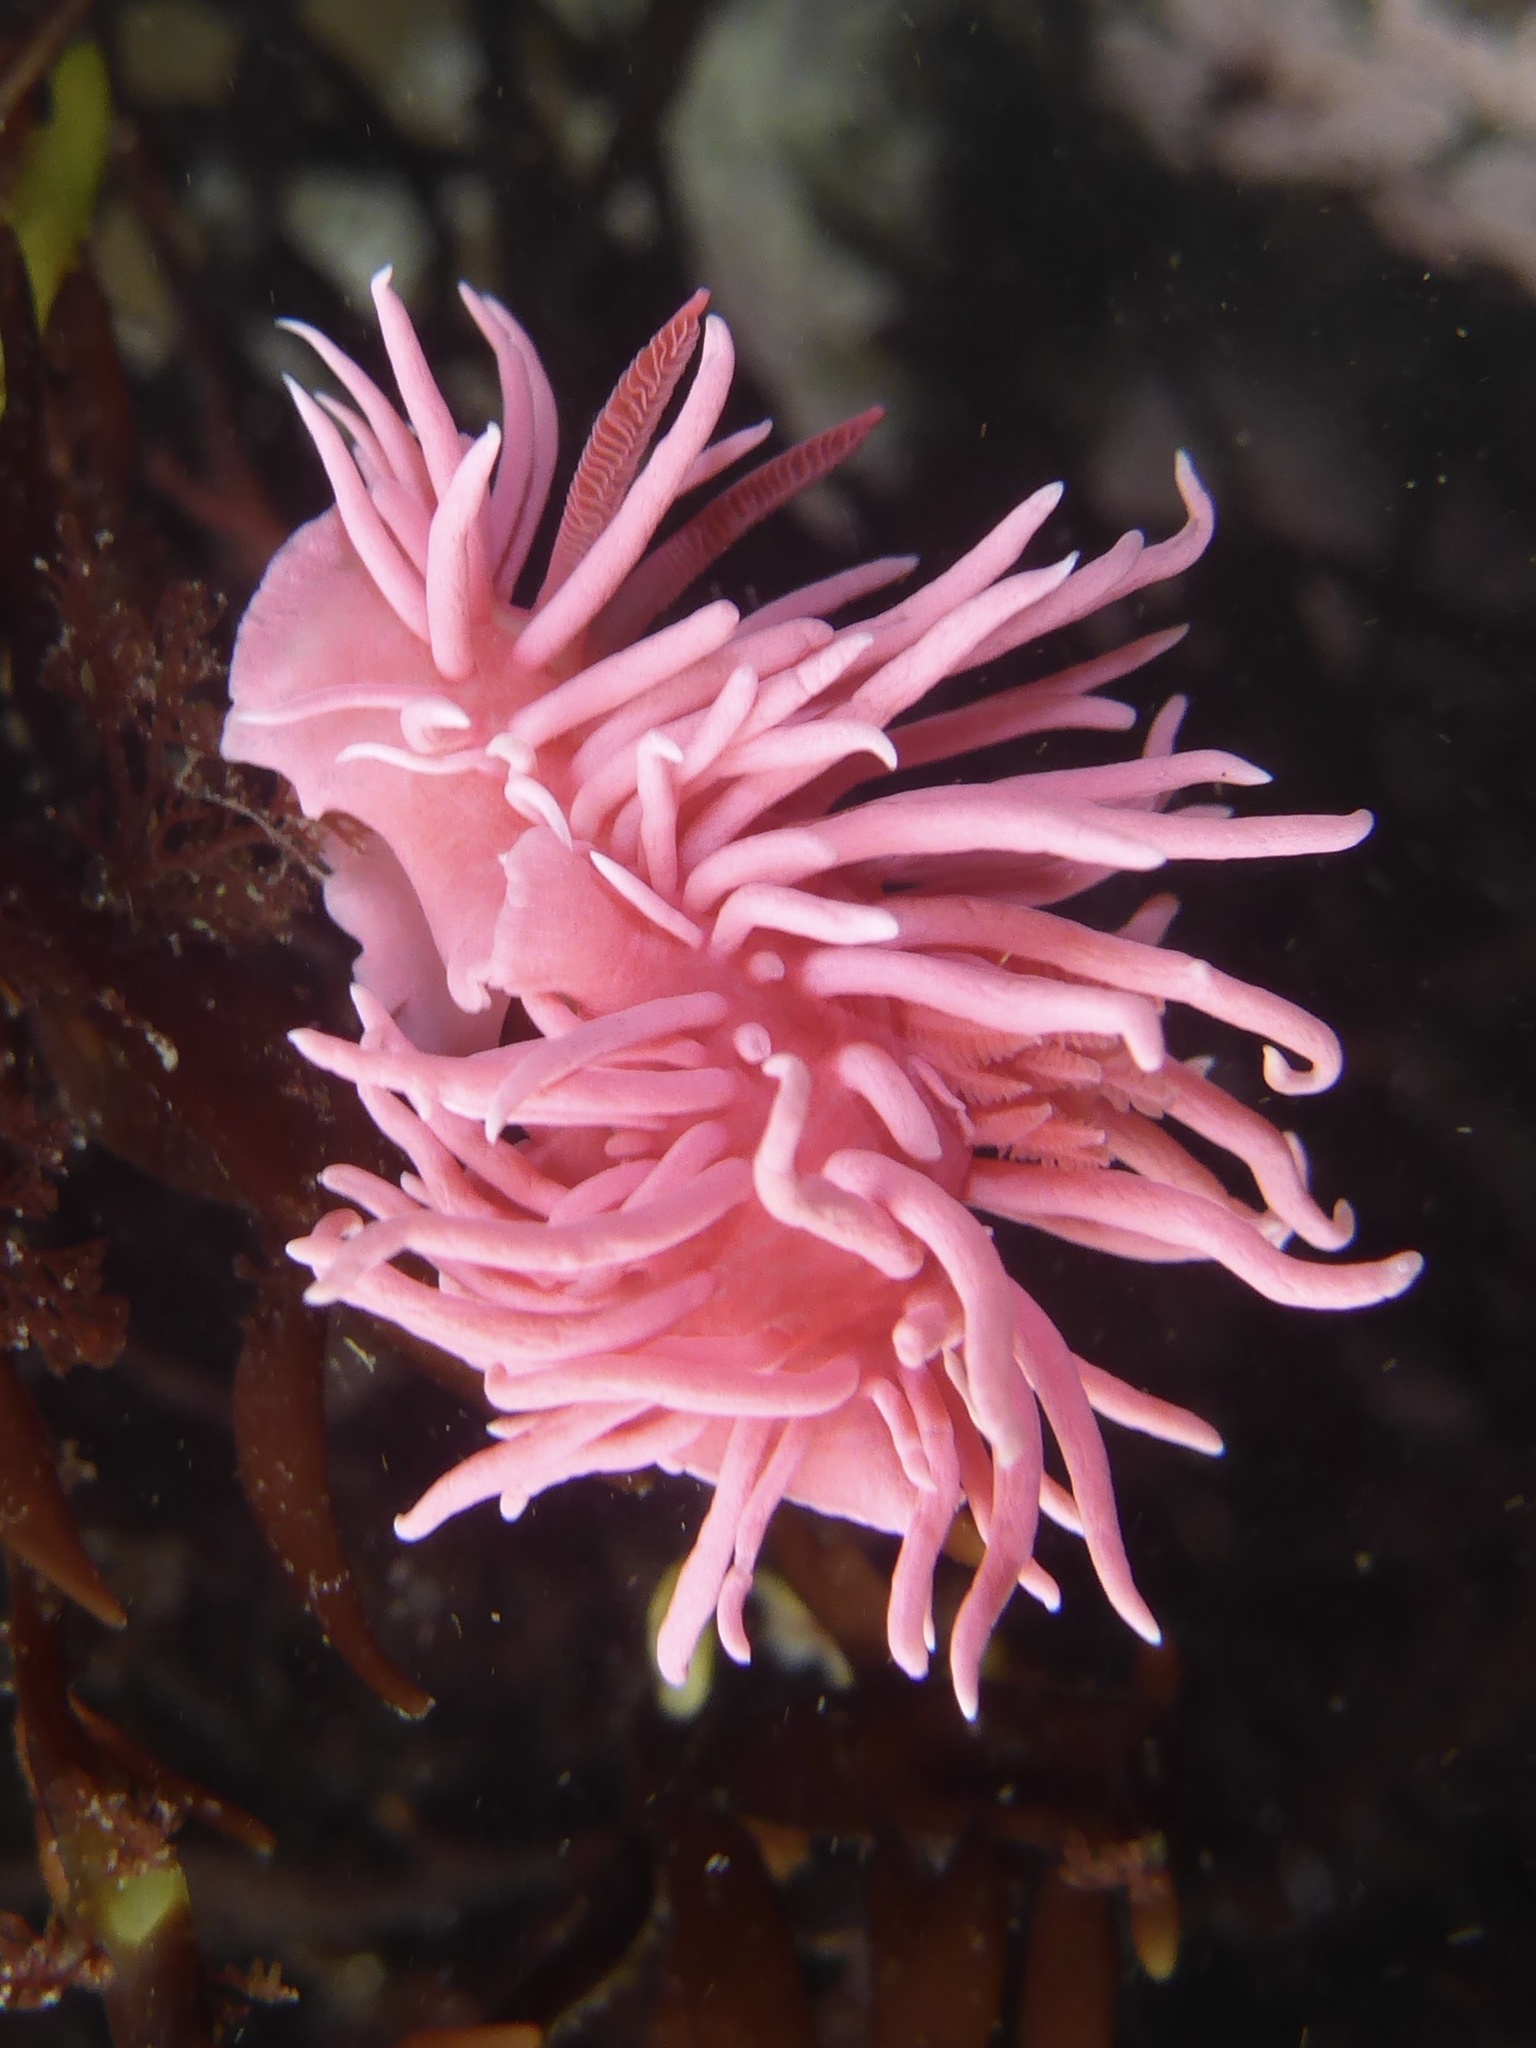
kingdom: Animalia
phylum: Mollusca
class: Gastropoda
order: Nudibranchia
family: Goniodorididae
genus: Okenia
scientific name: Okenia
